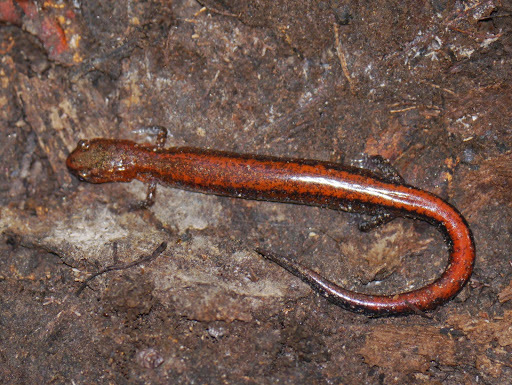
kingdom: Animalia
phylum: Chordata
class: Amphibia
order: Caudata
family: Plethodontidae
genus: Plethodon
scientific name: Plethodon cinereus
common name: Redback salamander
